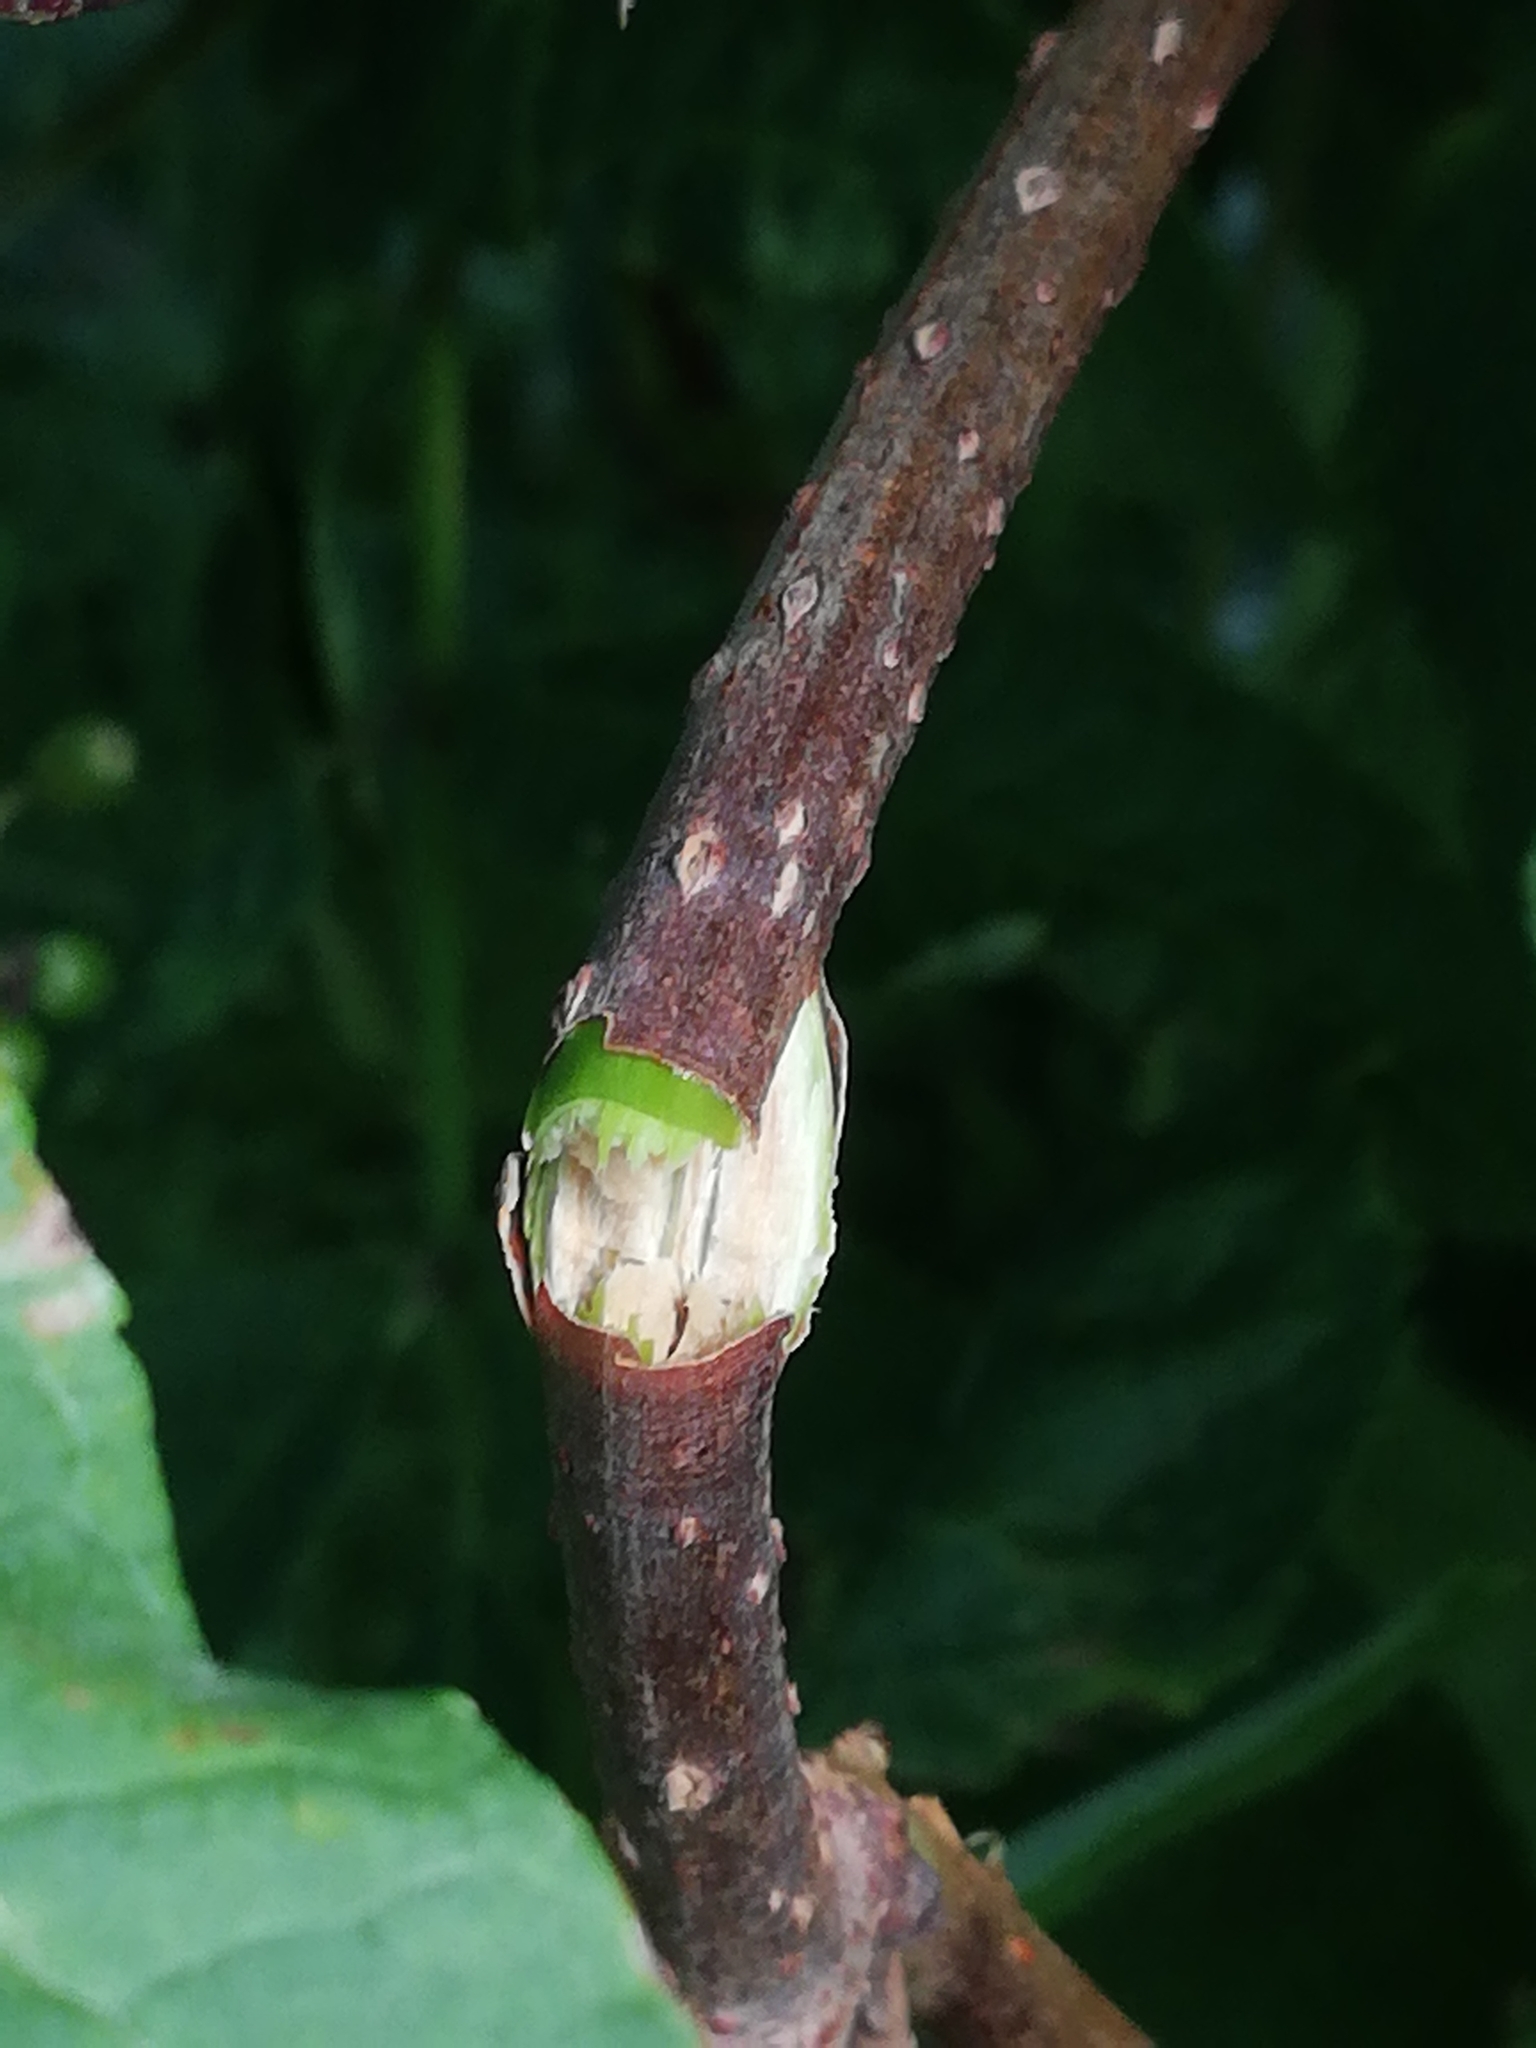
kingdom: Plantae
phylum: Tracheophyta
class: Magnoliopsida
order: Dipsacales
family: Viburnaceae
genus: Sambucus
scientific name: Sambucus racemosa
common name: Red-berried elder
